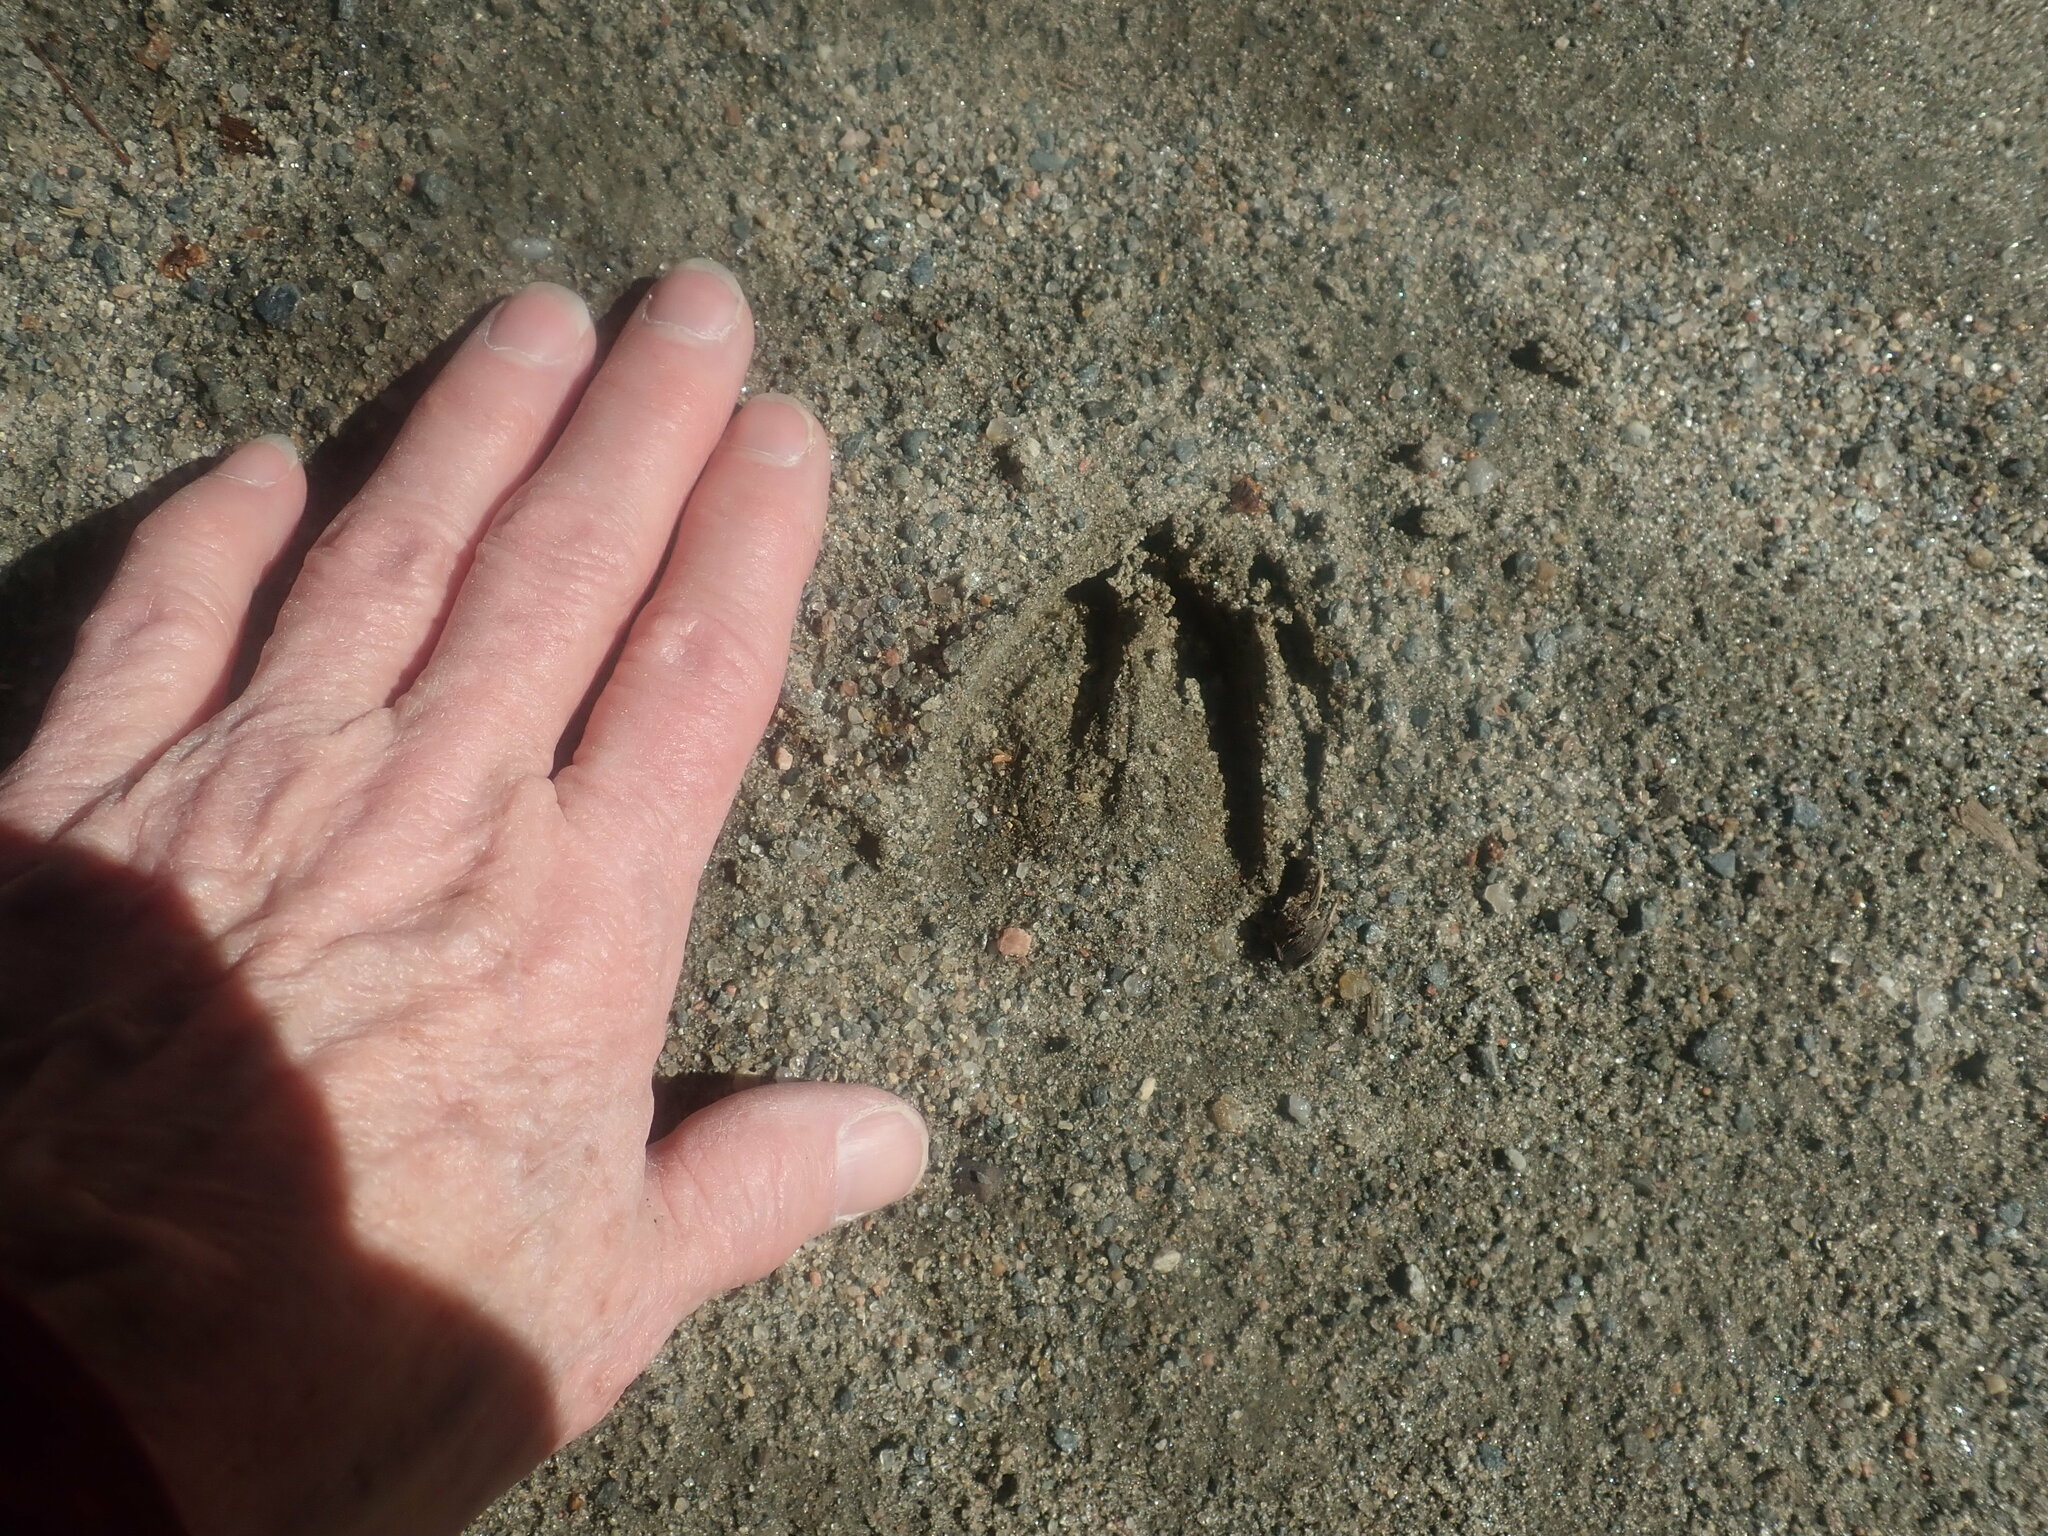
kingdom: Animalia
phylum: Chordata
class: Mammalia
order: Artiodactyla
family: Cervidae
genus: Odocoileus
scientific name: Odocoileus virginianus
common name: White-tailed deer
